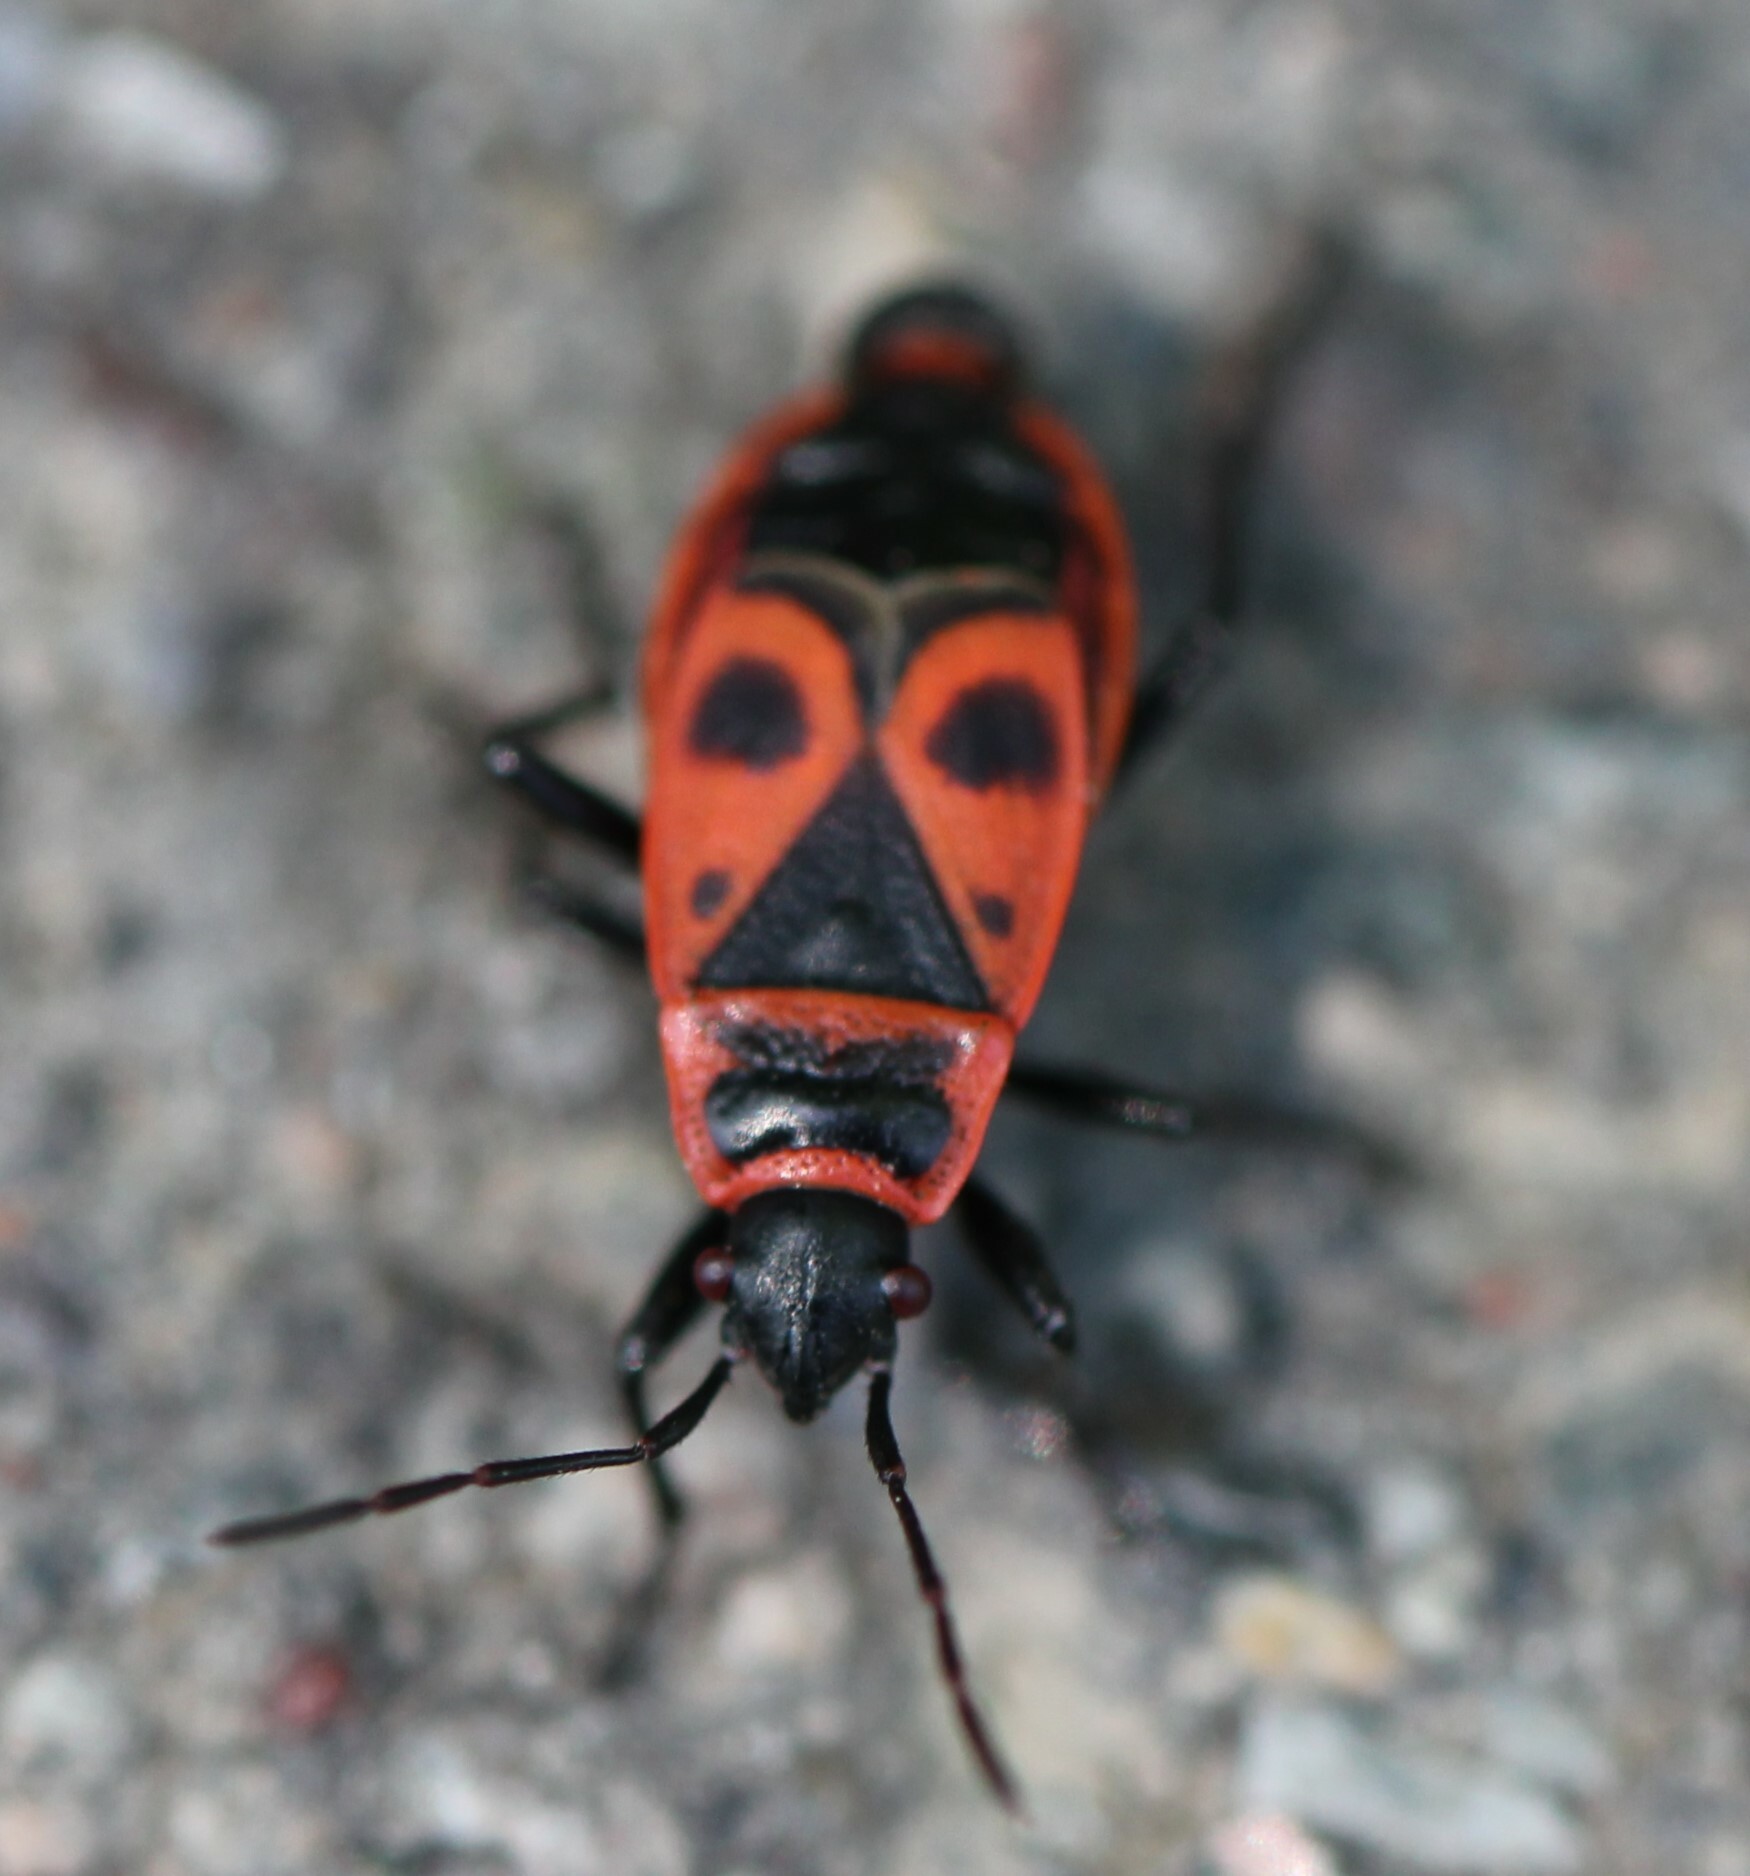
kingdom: Animalia
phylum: Arthropoda
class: Insecta
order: Hemiptera
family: Pyrrhocoridae
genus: Pyrrhocoris
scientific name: Pyrrhocoris apterus
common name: Firebug
